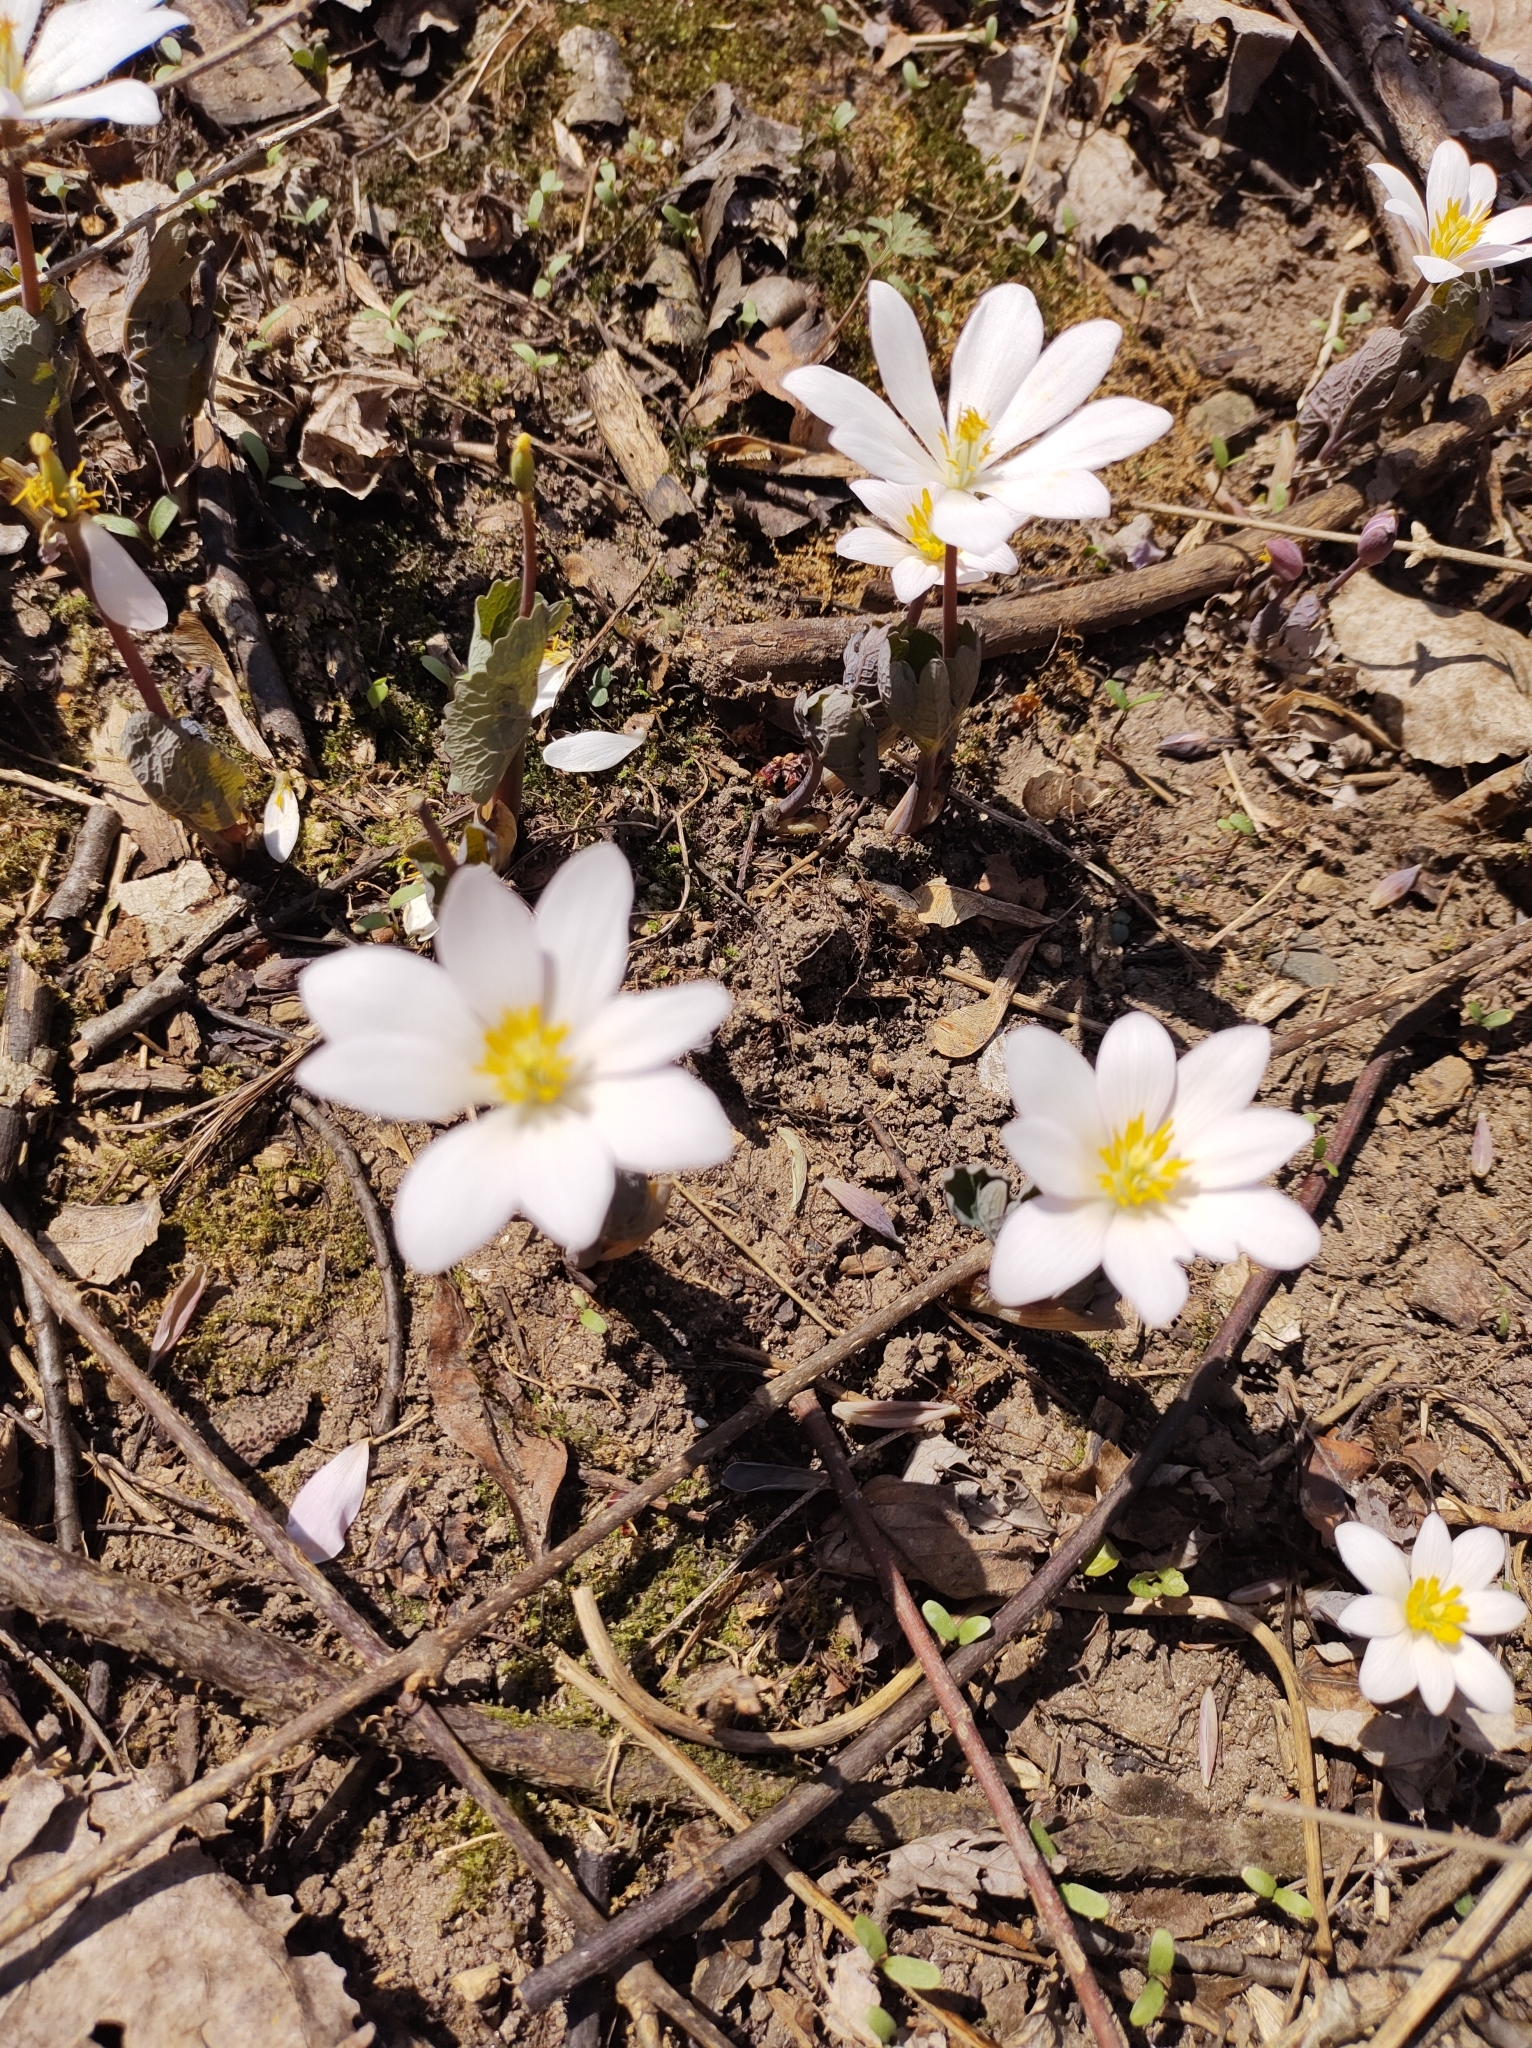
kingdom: Plantae
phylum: Tracheophyta
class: Magnoliopsida
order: Ranunculales
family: Papaveraceae
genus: Sanguinaria
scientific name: Sanguinaria canadensis
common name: Bloodroot
